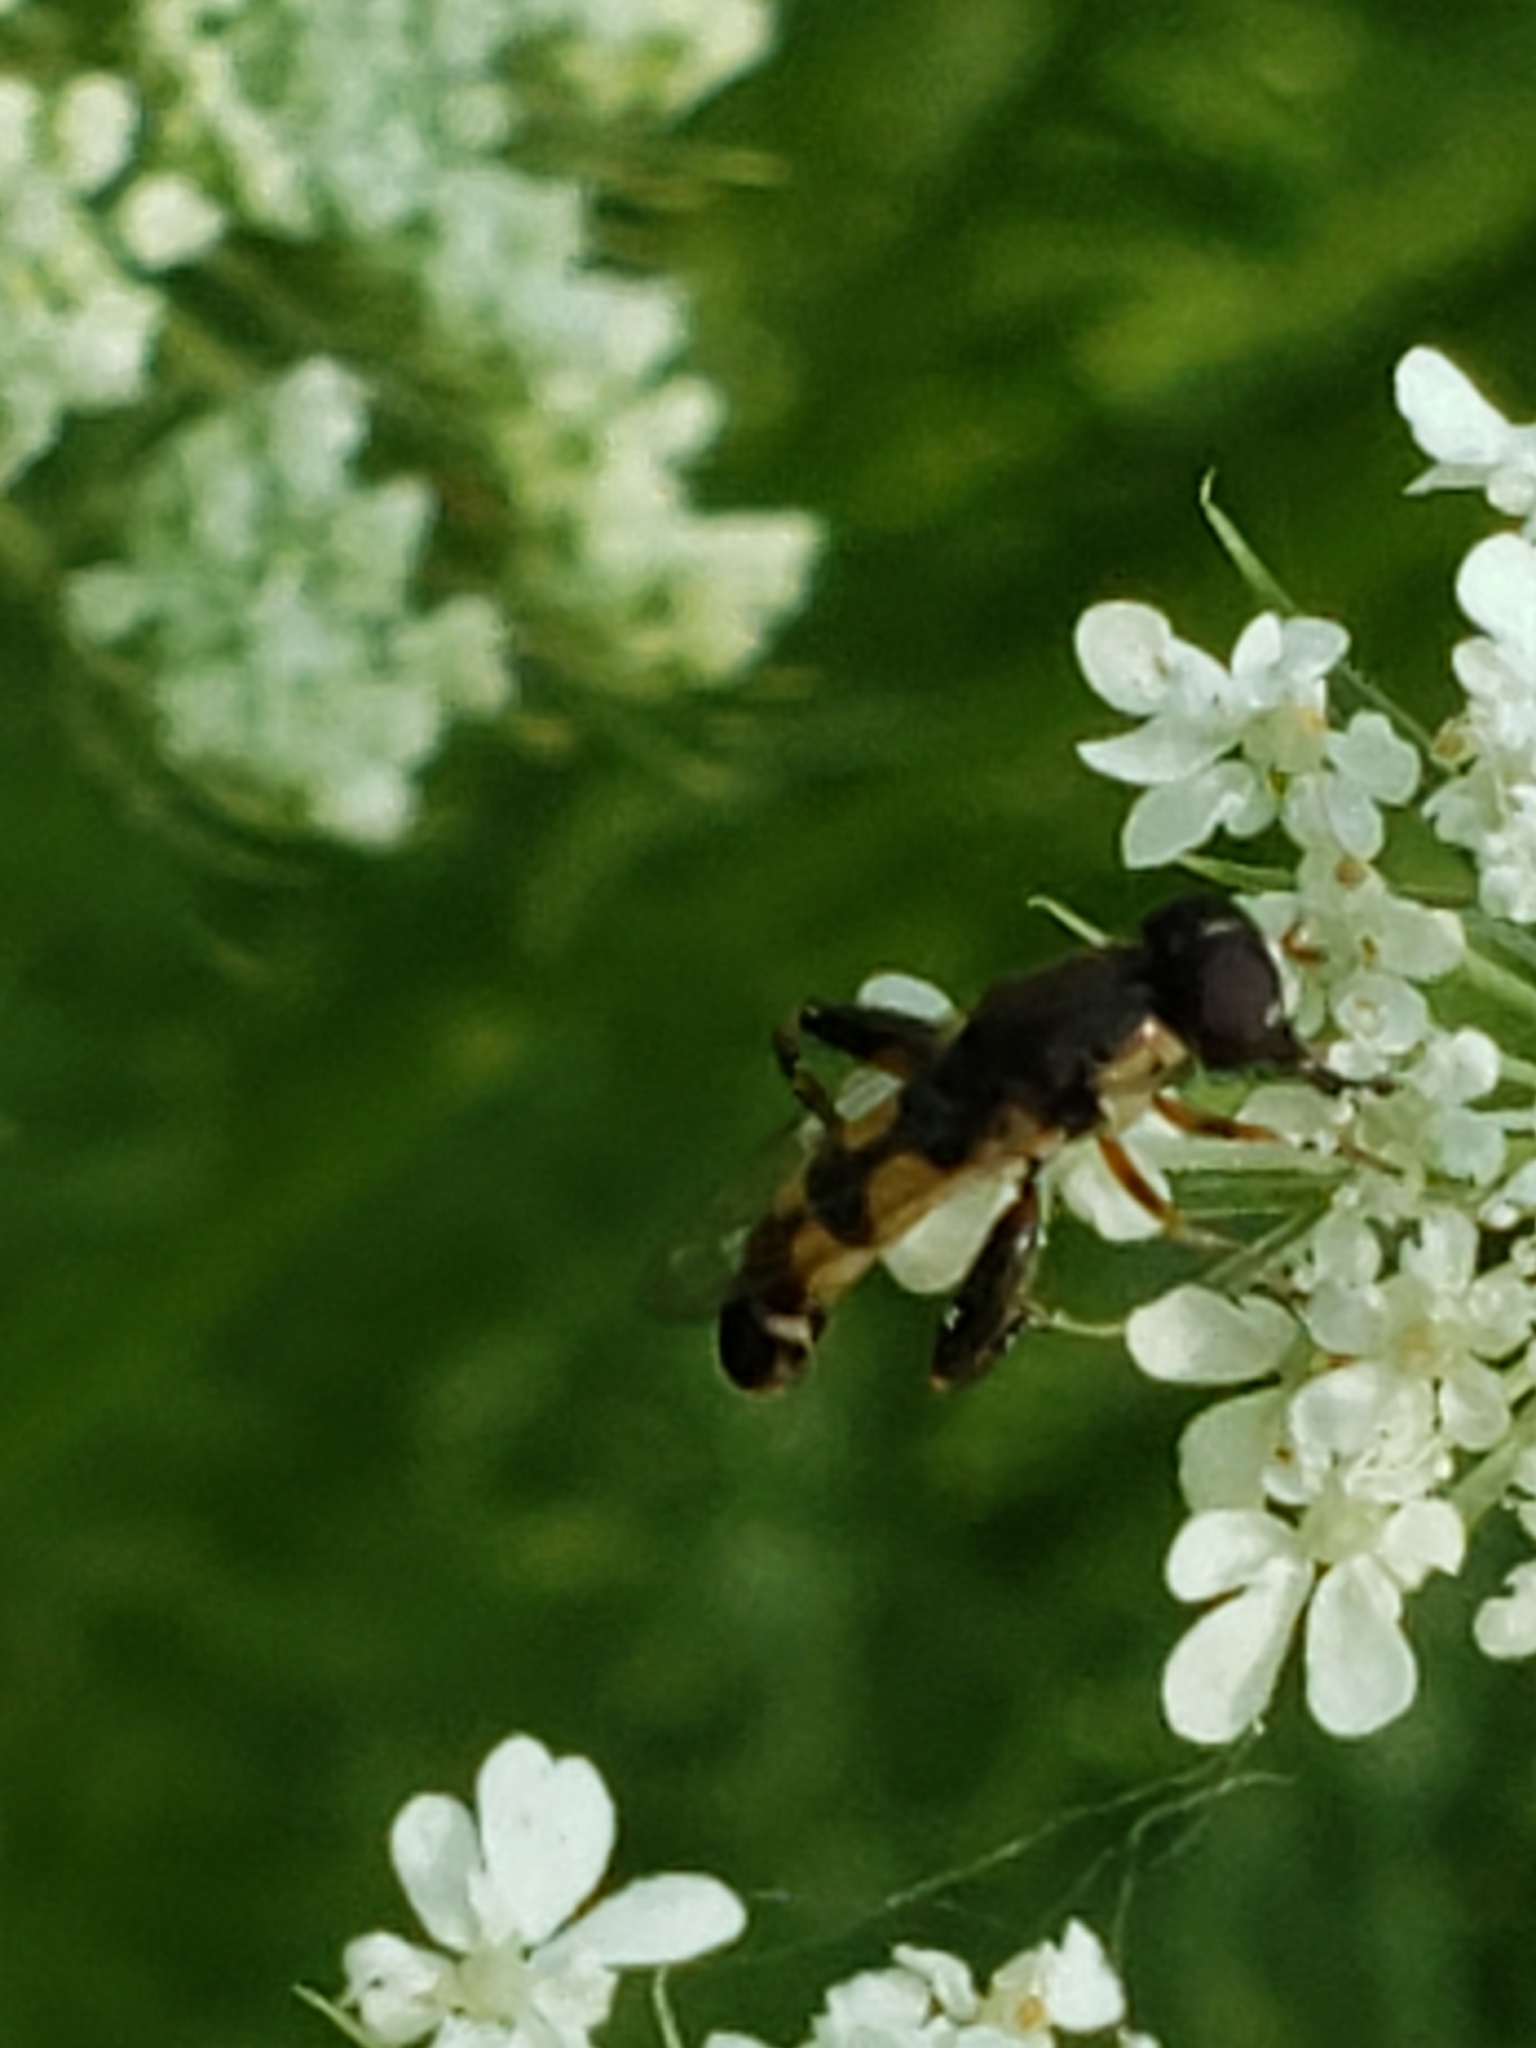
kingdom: Animalia
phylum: Arthropoda
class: Insecta
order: Diptera
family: Syrphidae
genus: Syritta
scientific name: Syritta pipiens
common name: Hover fly
